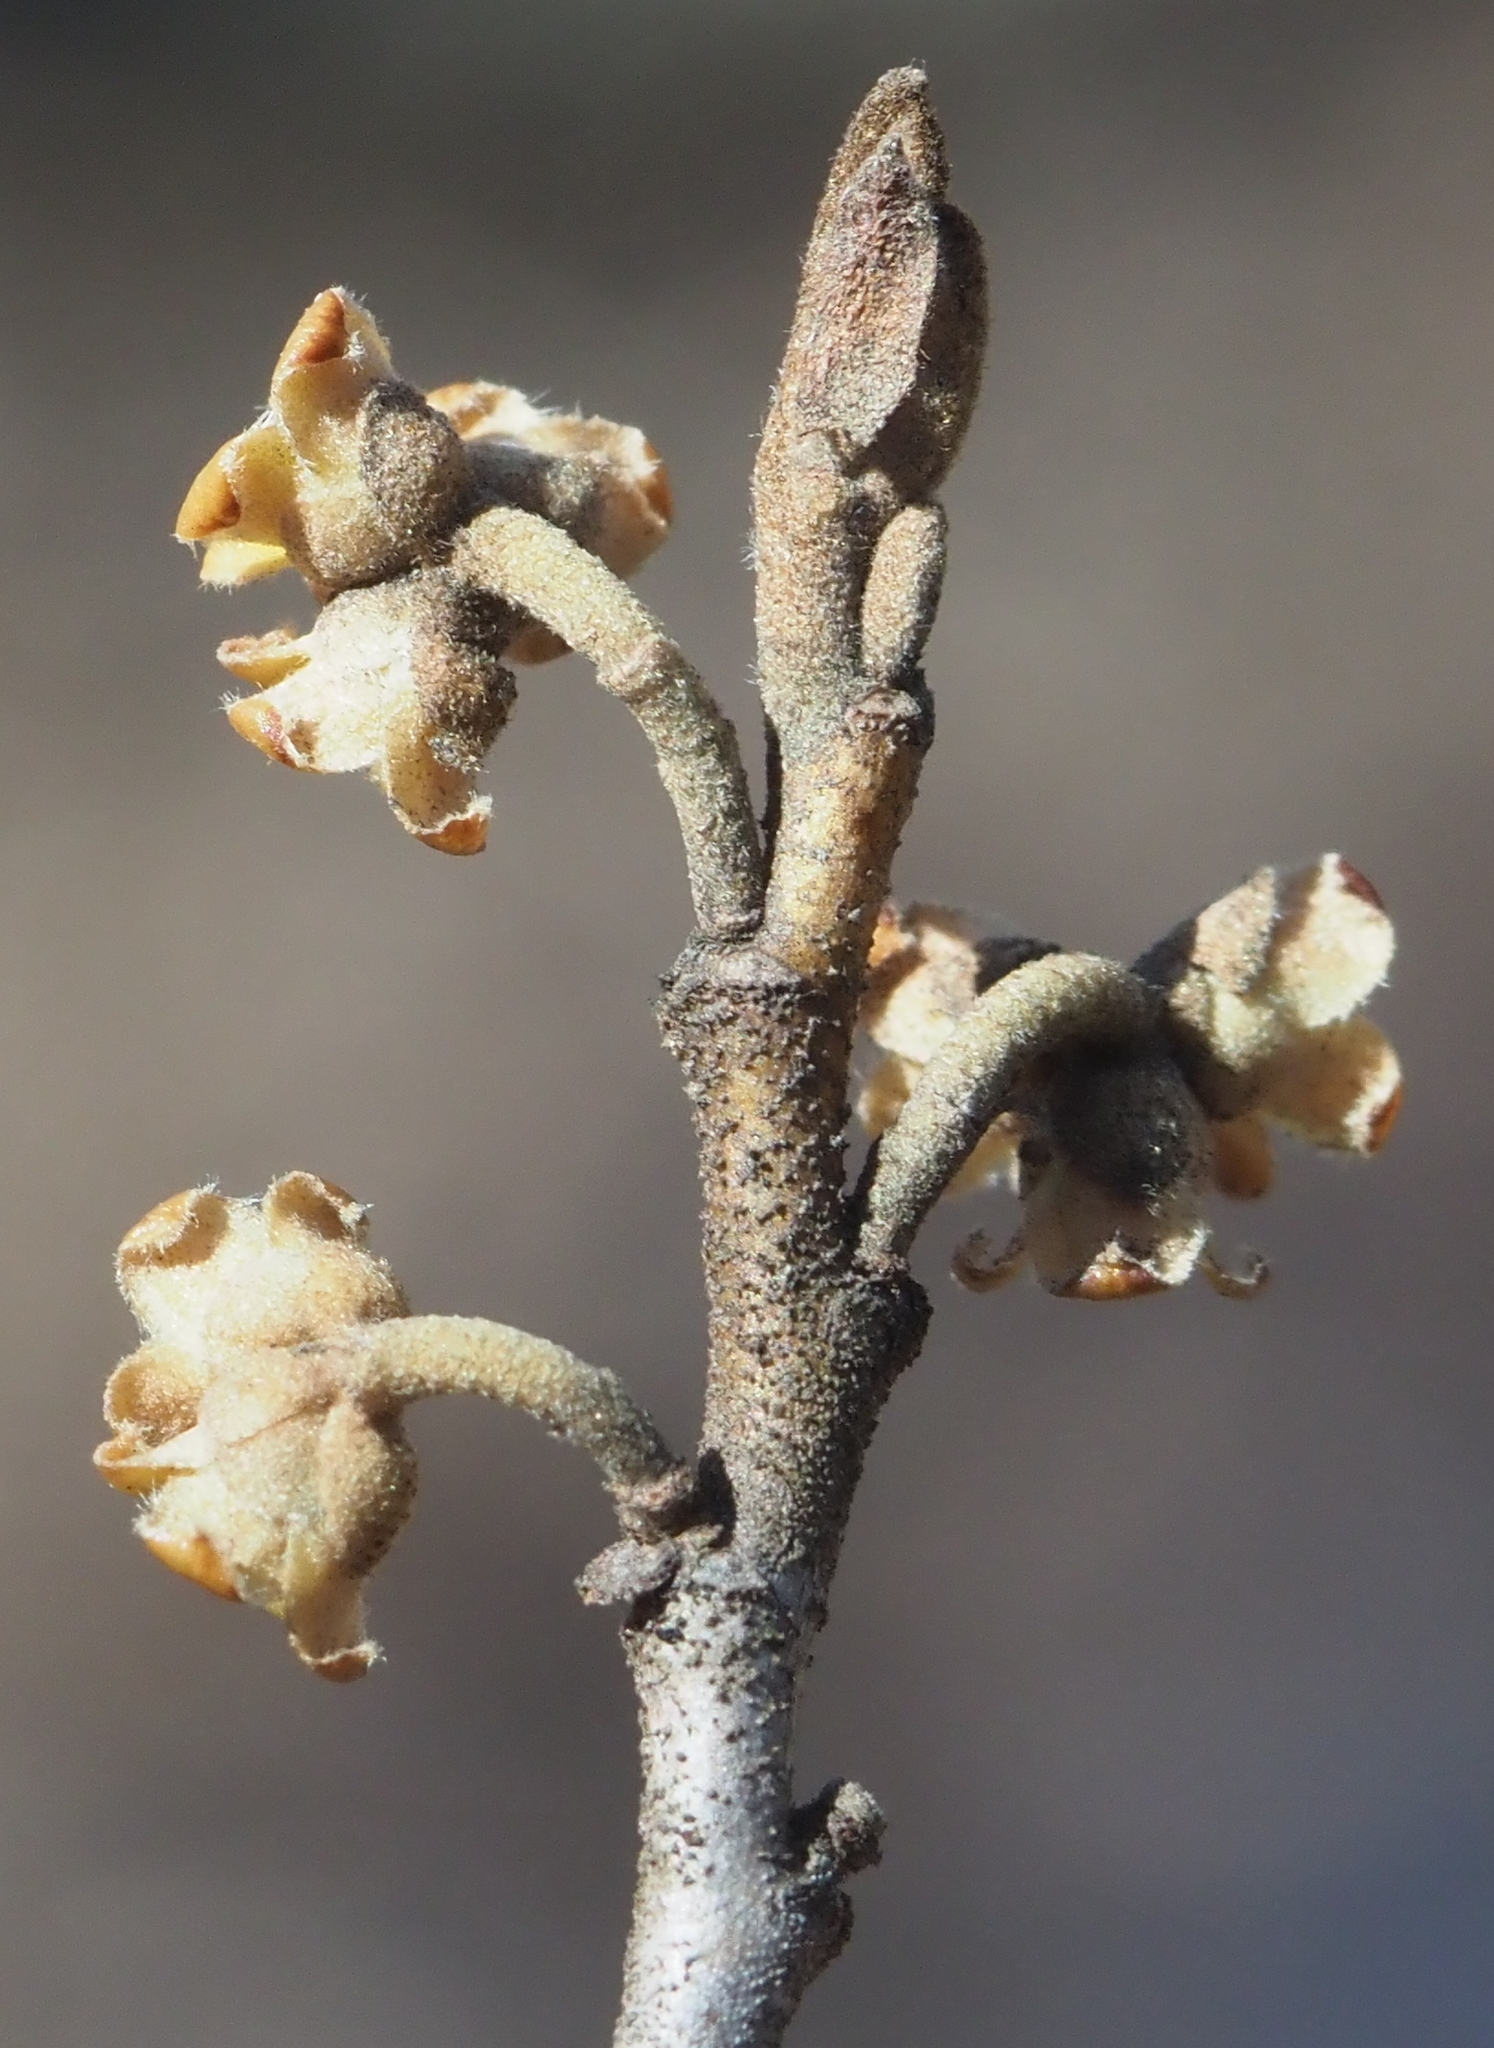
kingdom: Plantae
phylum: Tracheophyta
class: Magnoliopsida
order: Saxifragales
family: Hamamelidaceae
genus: Hamamelis
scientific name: Hamamelis virginiana
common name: Witch-hazel
